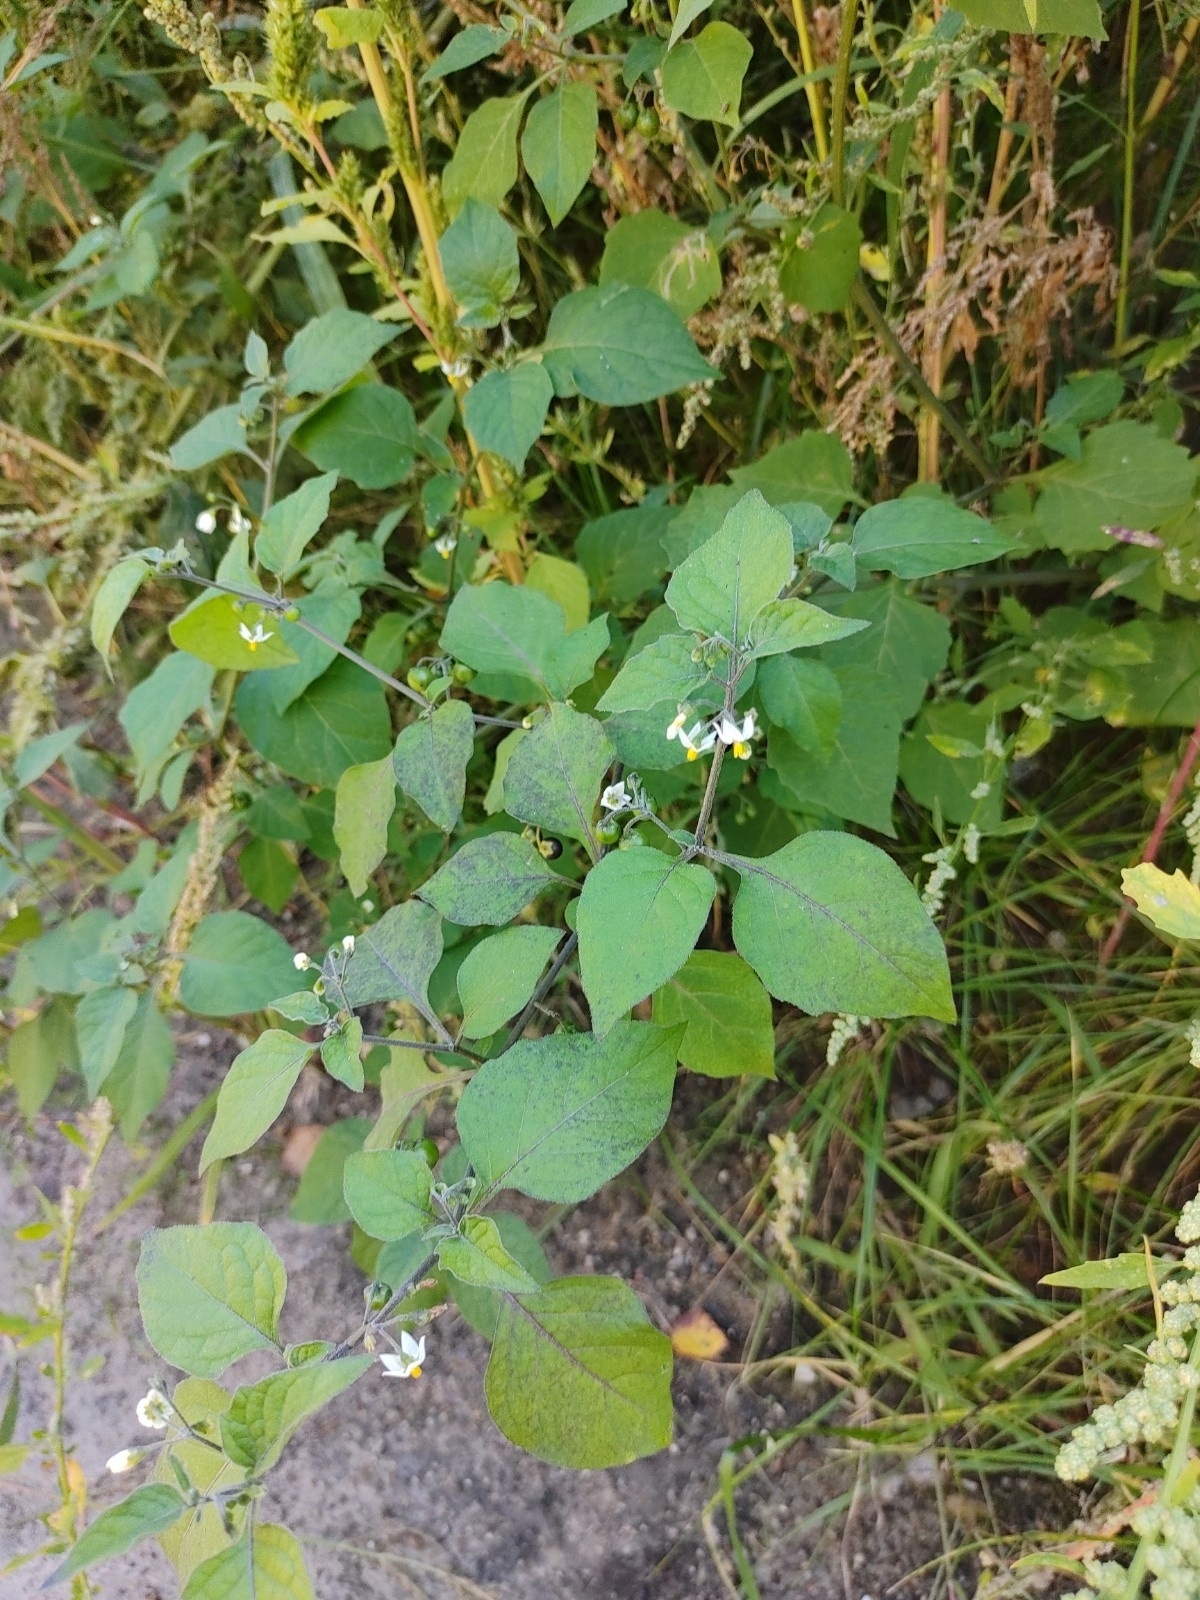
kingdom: Plantae
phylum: Tracheophyta
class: Magnoliopsida
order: Solanales
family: Solanaceae
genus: Solanum
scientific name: Solanum nigrum
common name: Black nightshade
